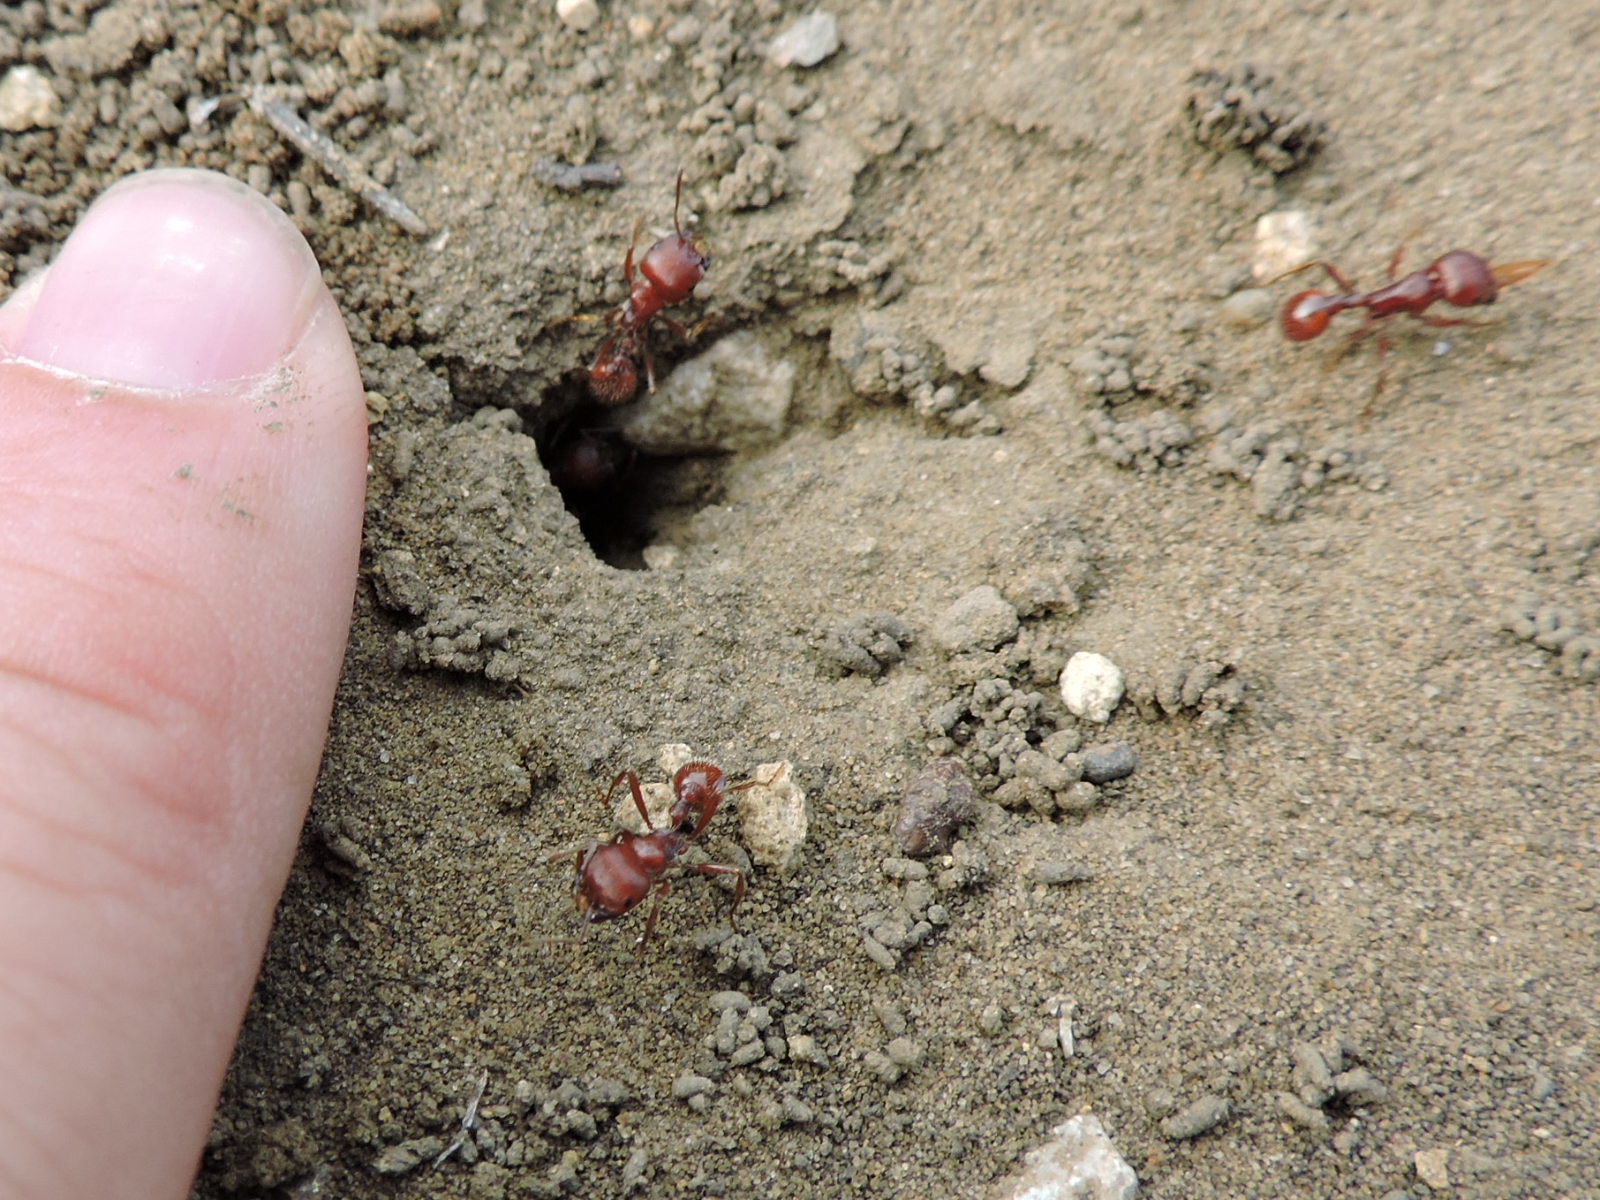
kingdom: Animalia
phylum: Arthropoda
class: Insecta
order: Hymenoptera
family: Formicidae
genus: Pogonomyrmex
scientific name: Pogonomyrmex barbatus
